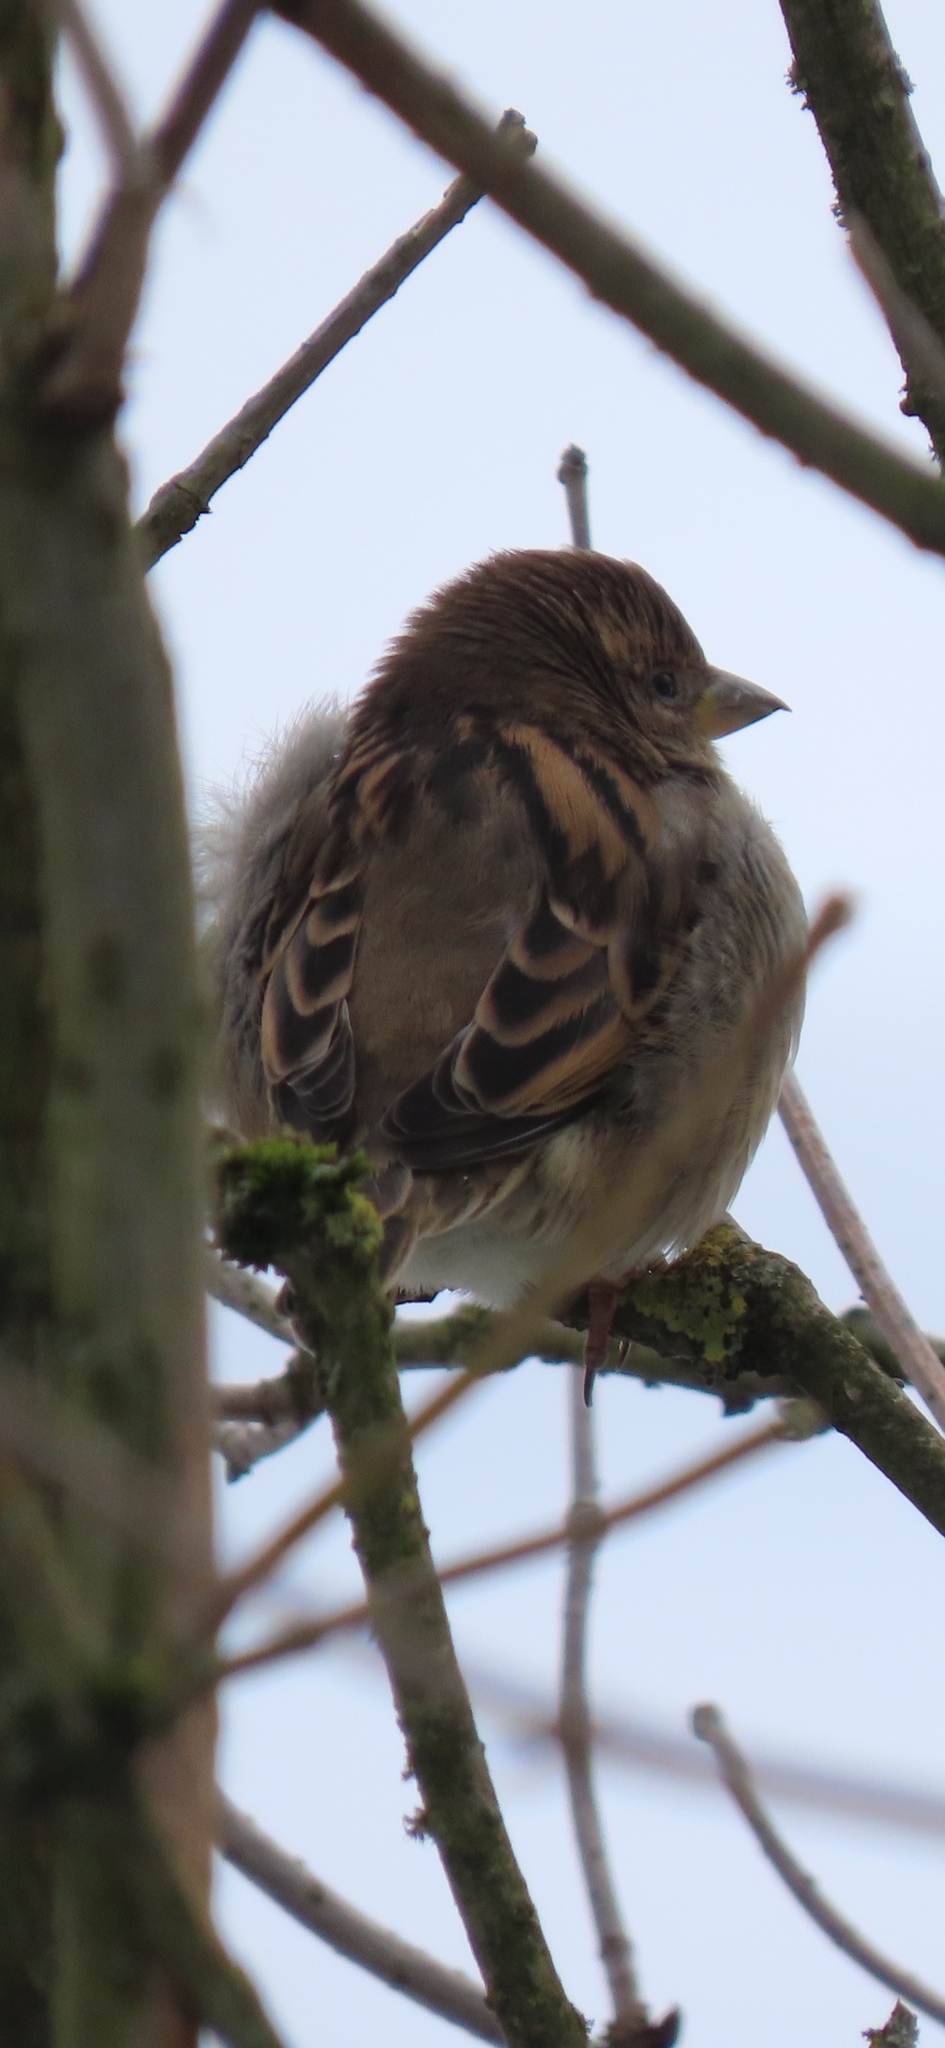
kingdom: Animalia
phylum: Chordata
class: Aves
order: Passeriformes
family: Passeridae
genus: Passer
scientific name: Passer domesticus
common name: House sparrow
